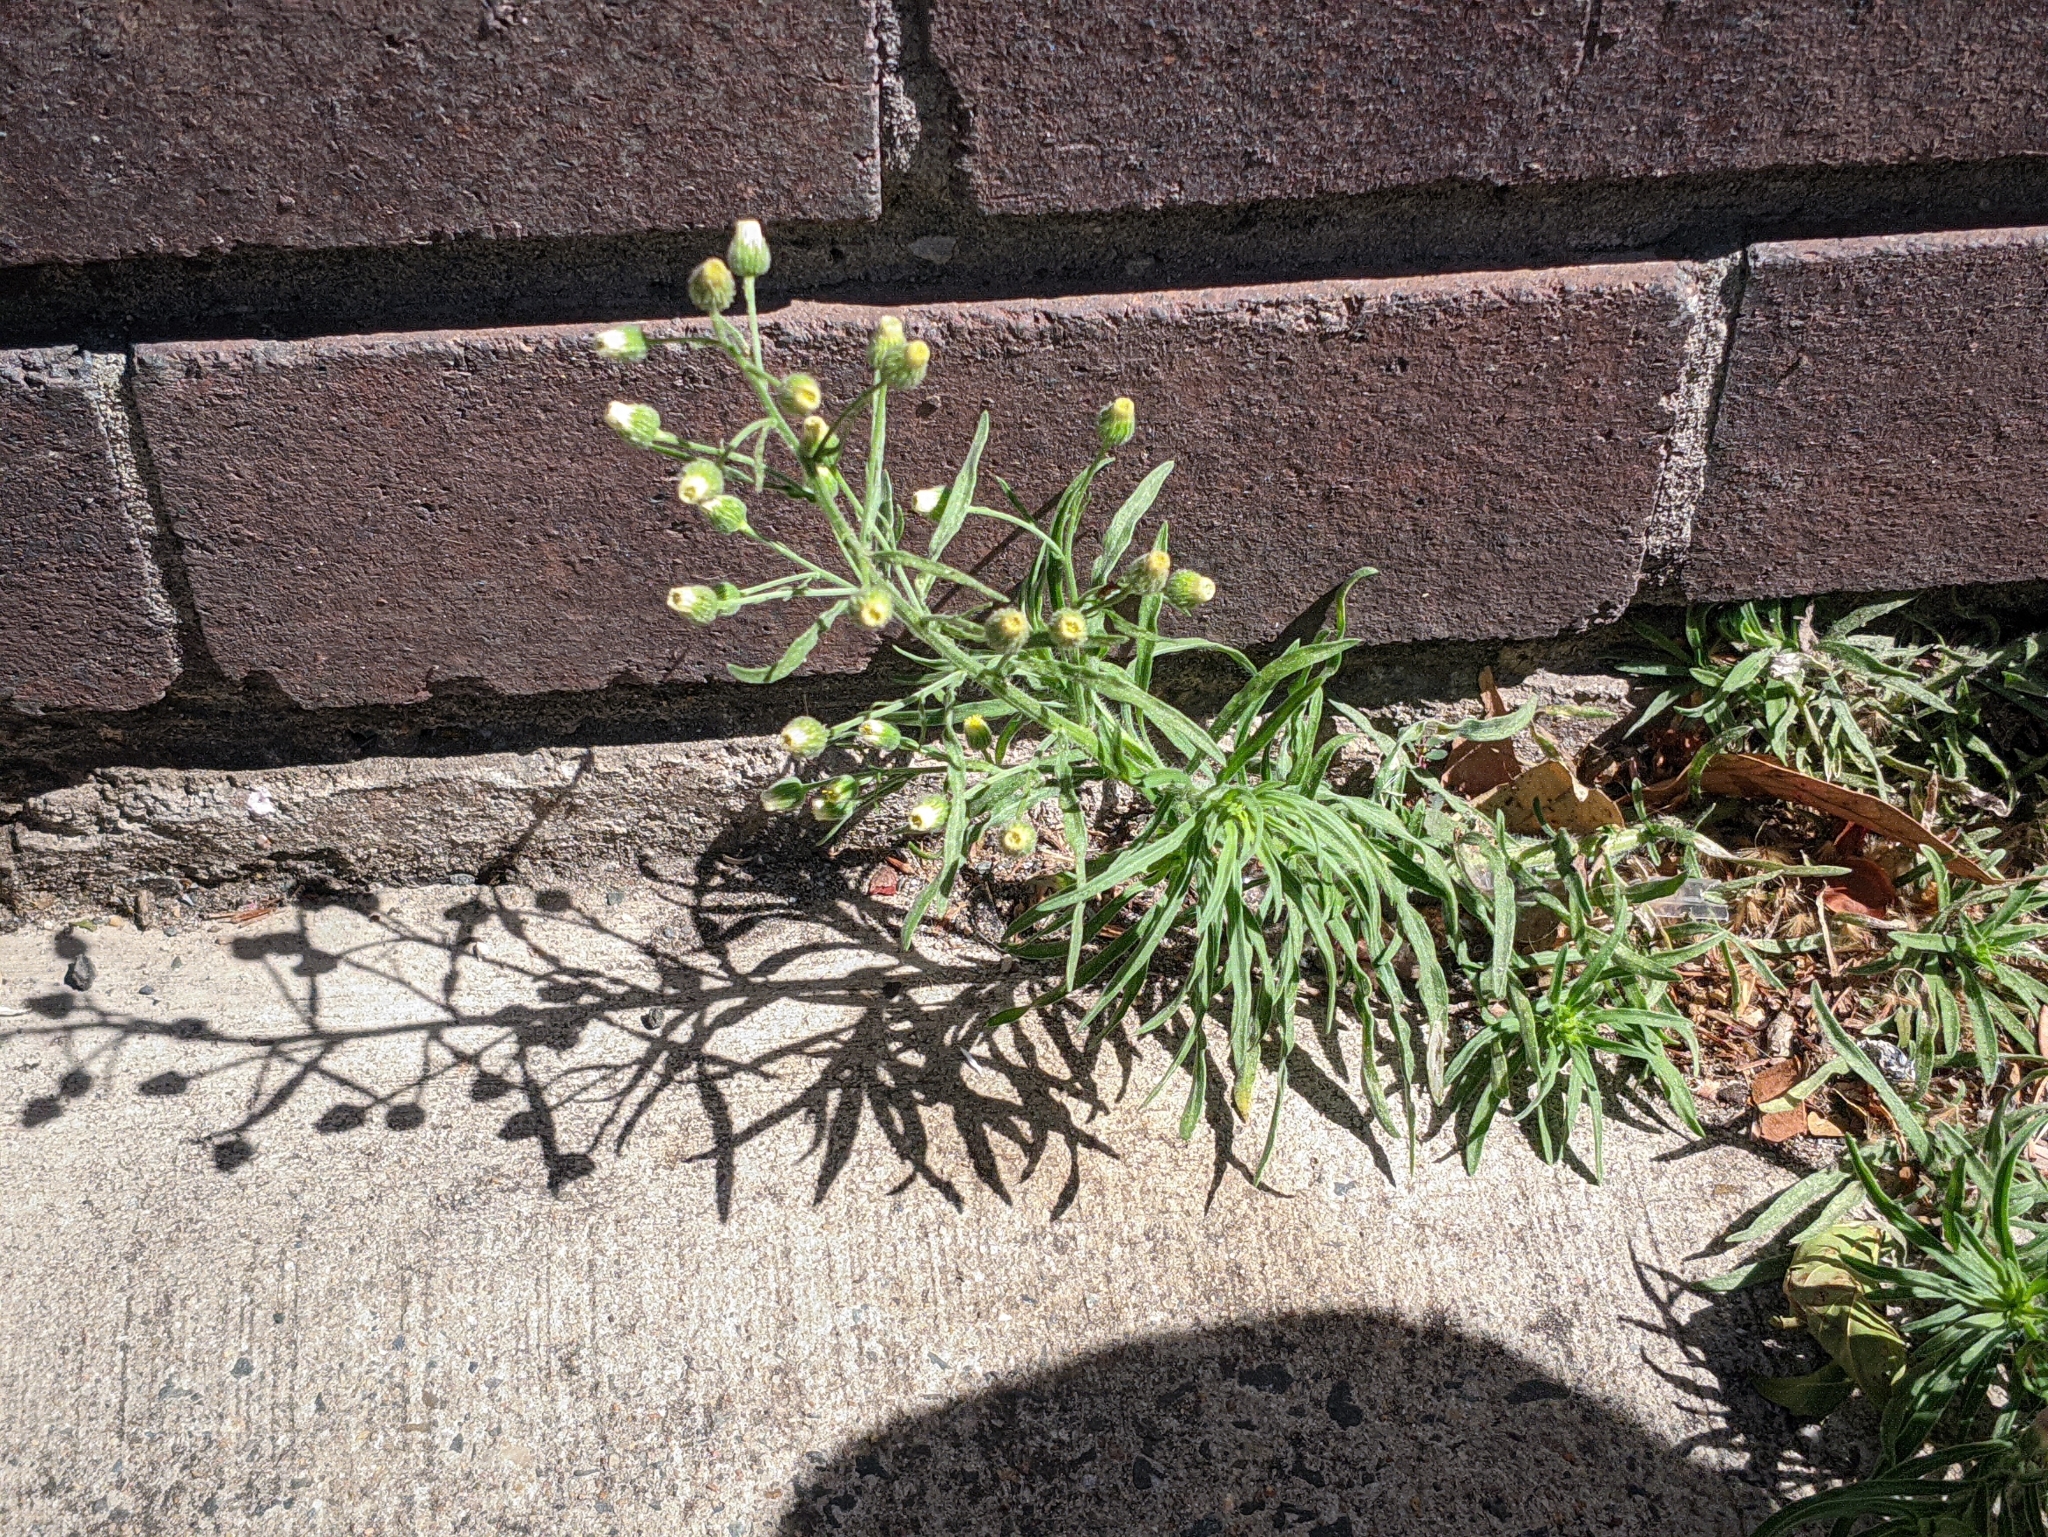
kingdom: Plantae
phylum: Tracheophyta
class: Magnoliopsida
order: Asterales
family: Asteraceae
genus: Erigeron
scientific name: Erigeron bonariensis
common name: Argentine fleabane
